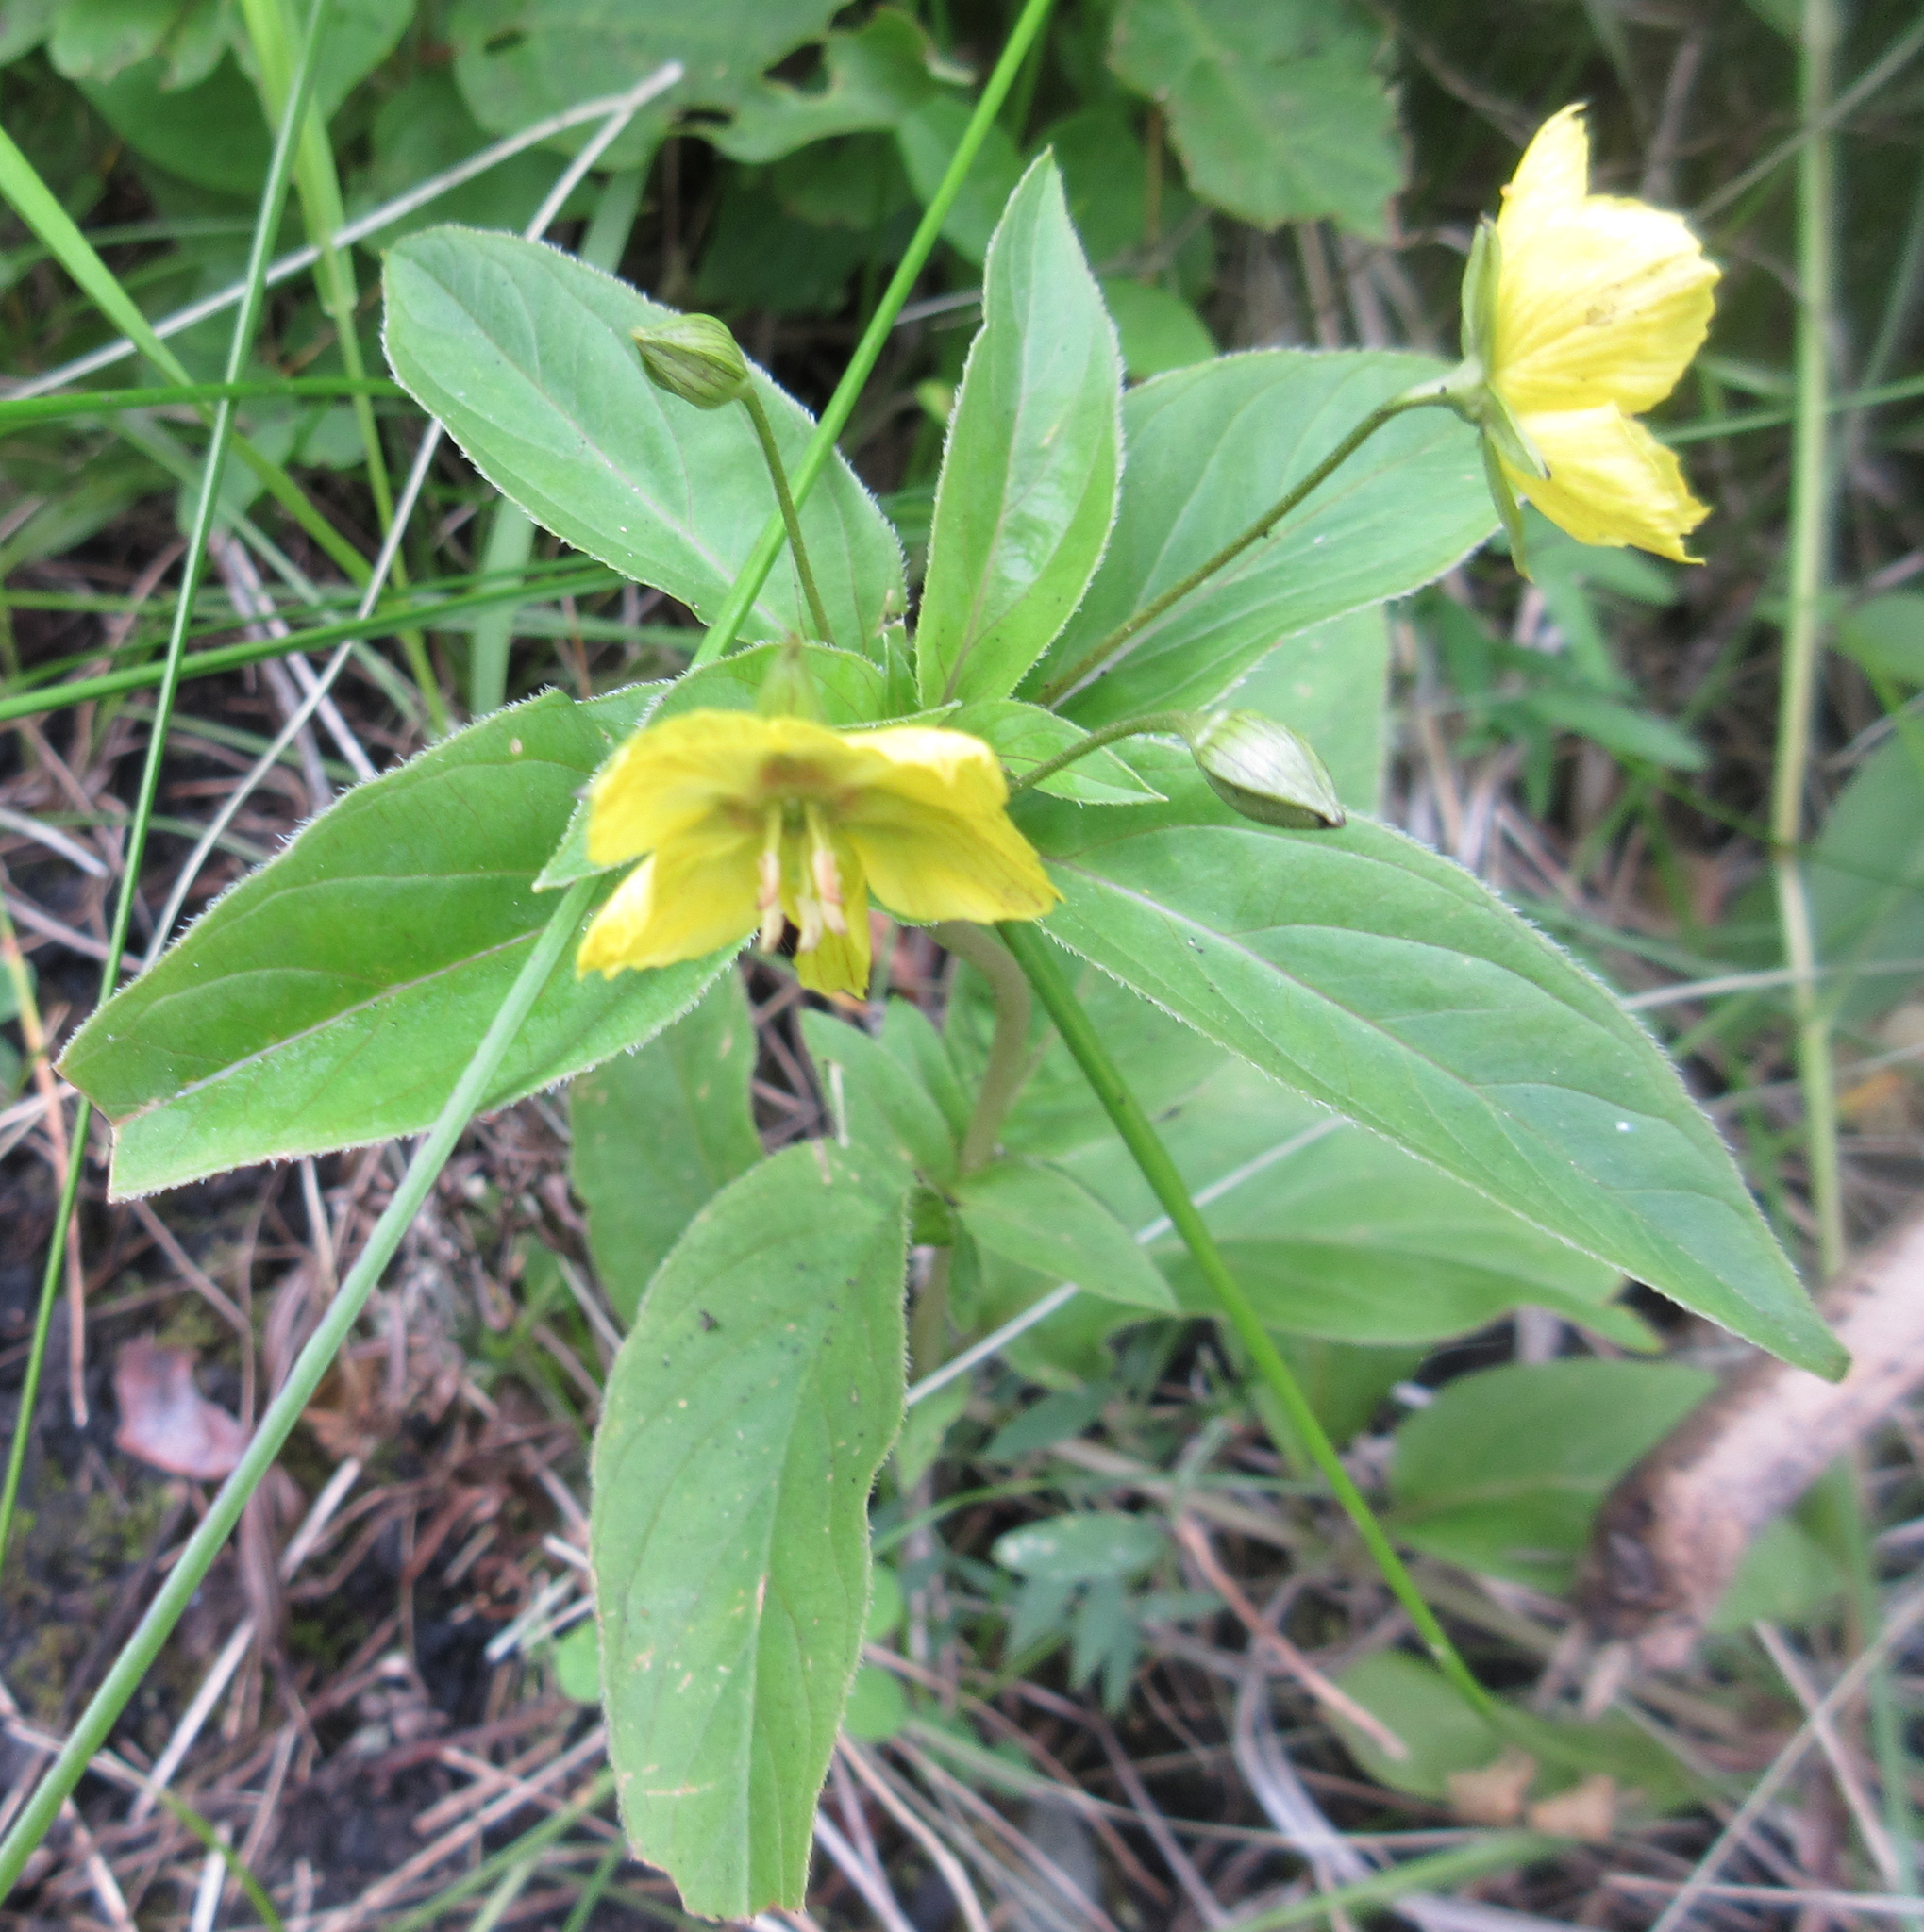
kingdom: Plantae
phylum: Tracheophyta
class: Magnoliopsida
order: Ericales
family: Primulaceae
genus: Lysimachia
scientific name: Lysimachia ciliata
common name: Fringed loosestrife
